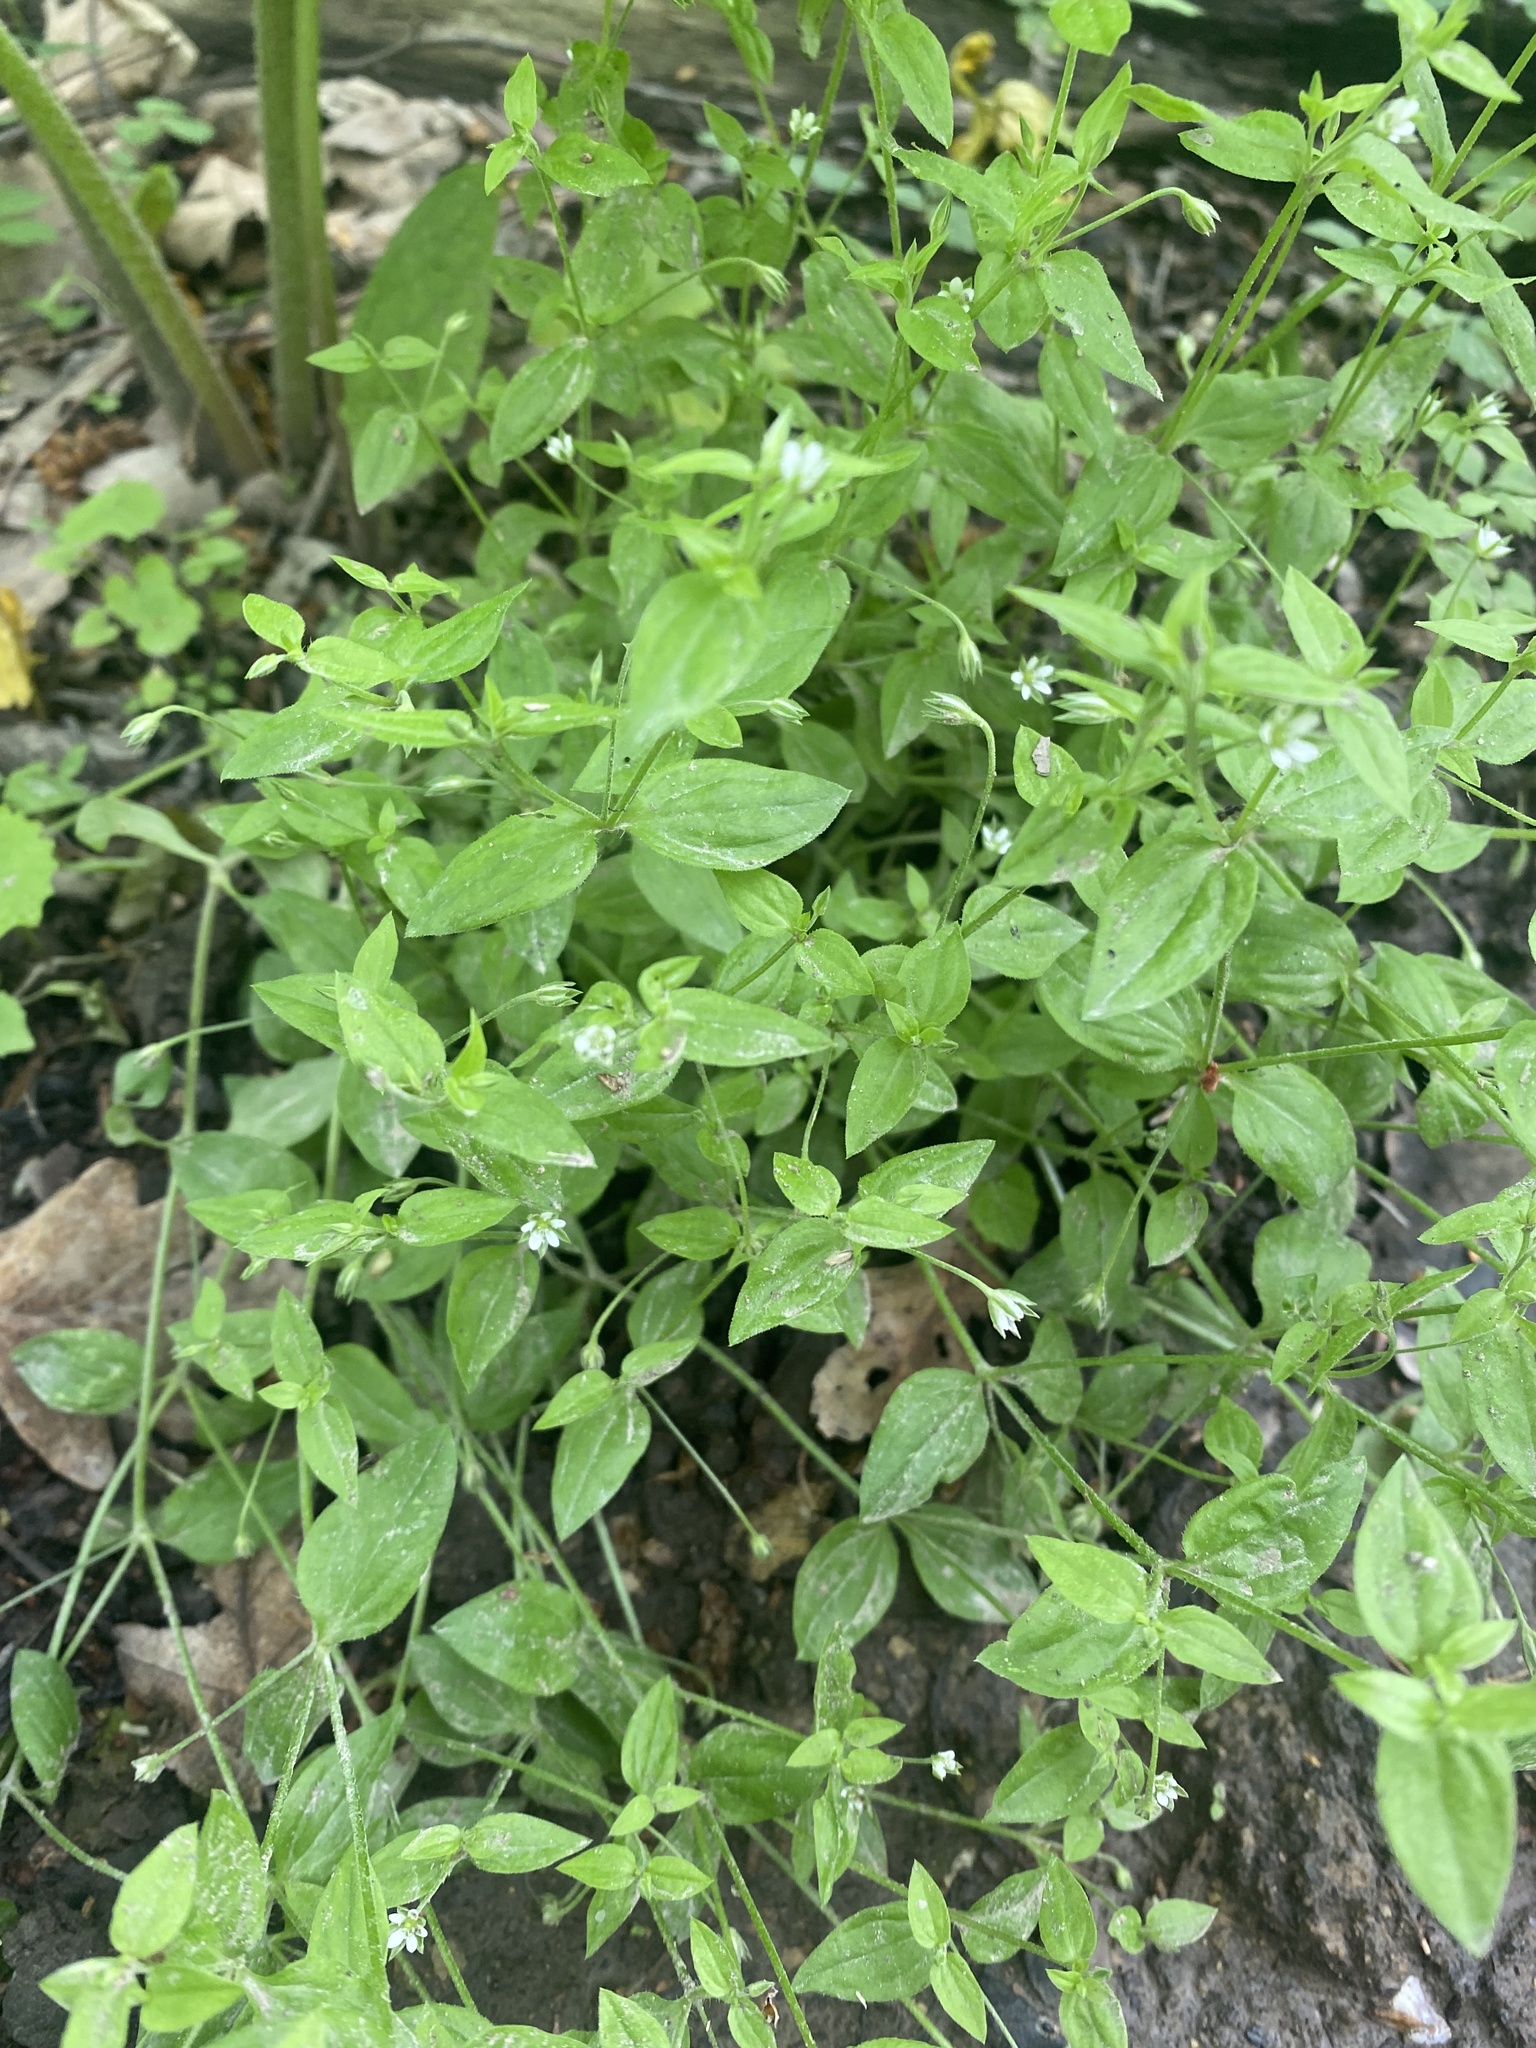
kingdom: Plantae
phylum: Tracheophyta
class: Magnoliopsida
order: Caryophyllales
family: Caryophyllaceae
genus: Moehringia
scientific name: Moehringia trinervia
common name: Three-nerved sandwort
